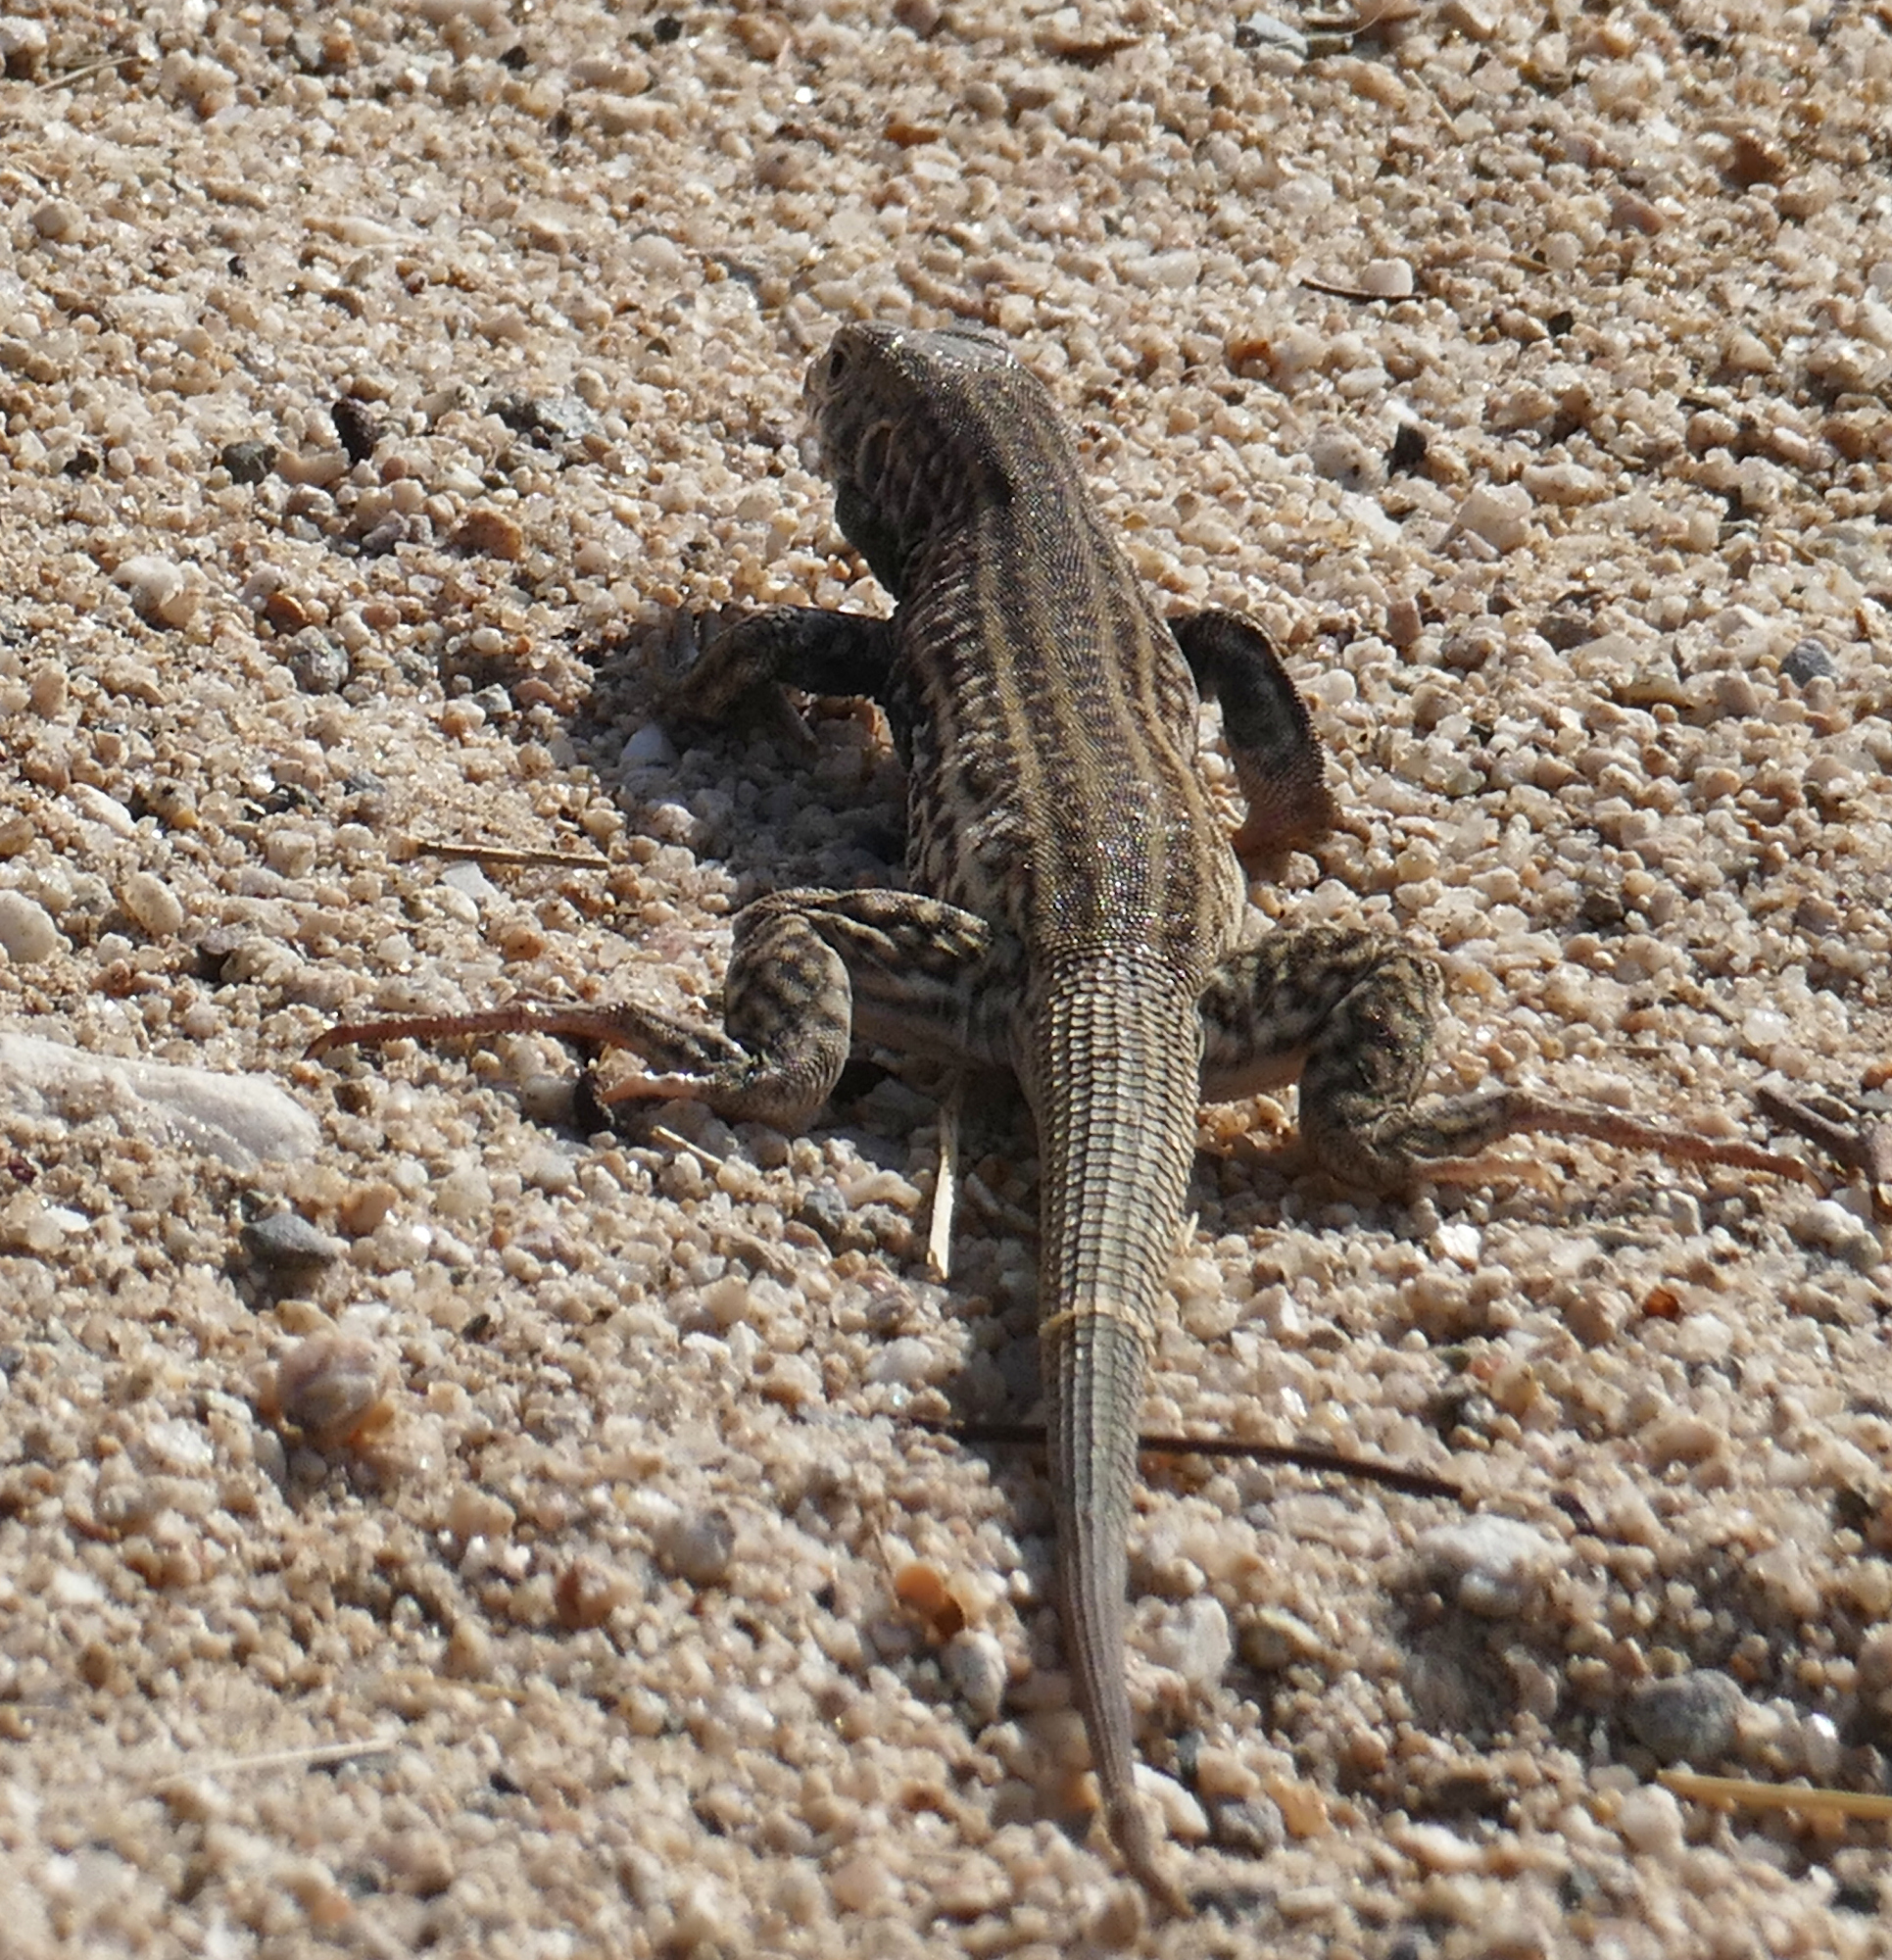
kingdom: Animalia
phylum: Chordata
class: Squamata
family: Teiidae
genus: Aspidoscelis
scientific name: Aspidoscelis tigris
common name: Tiger whiptail
